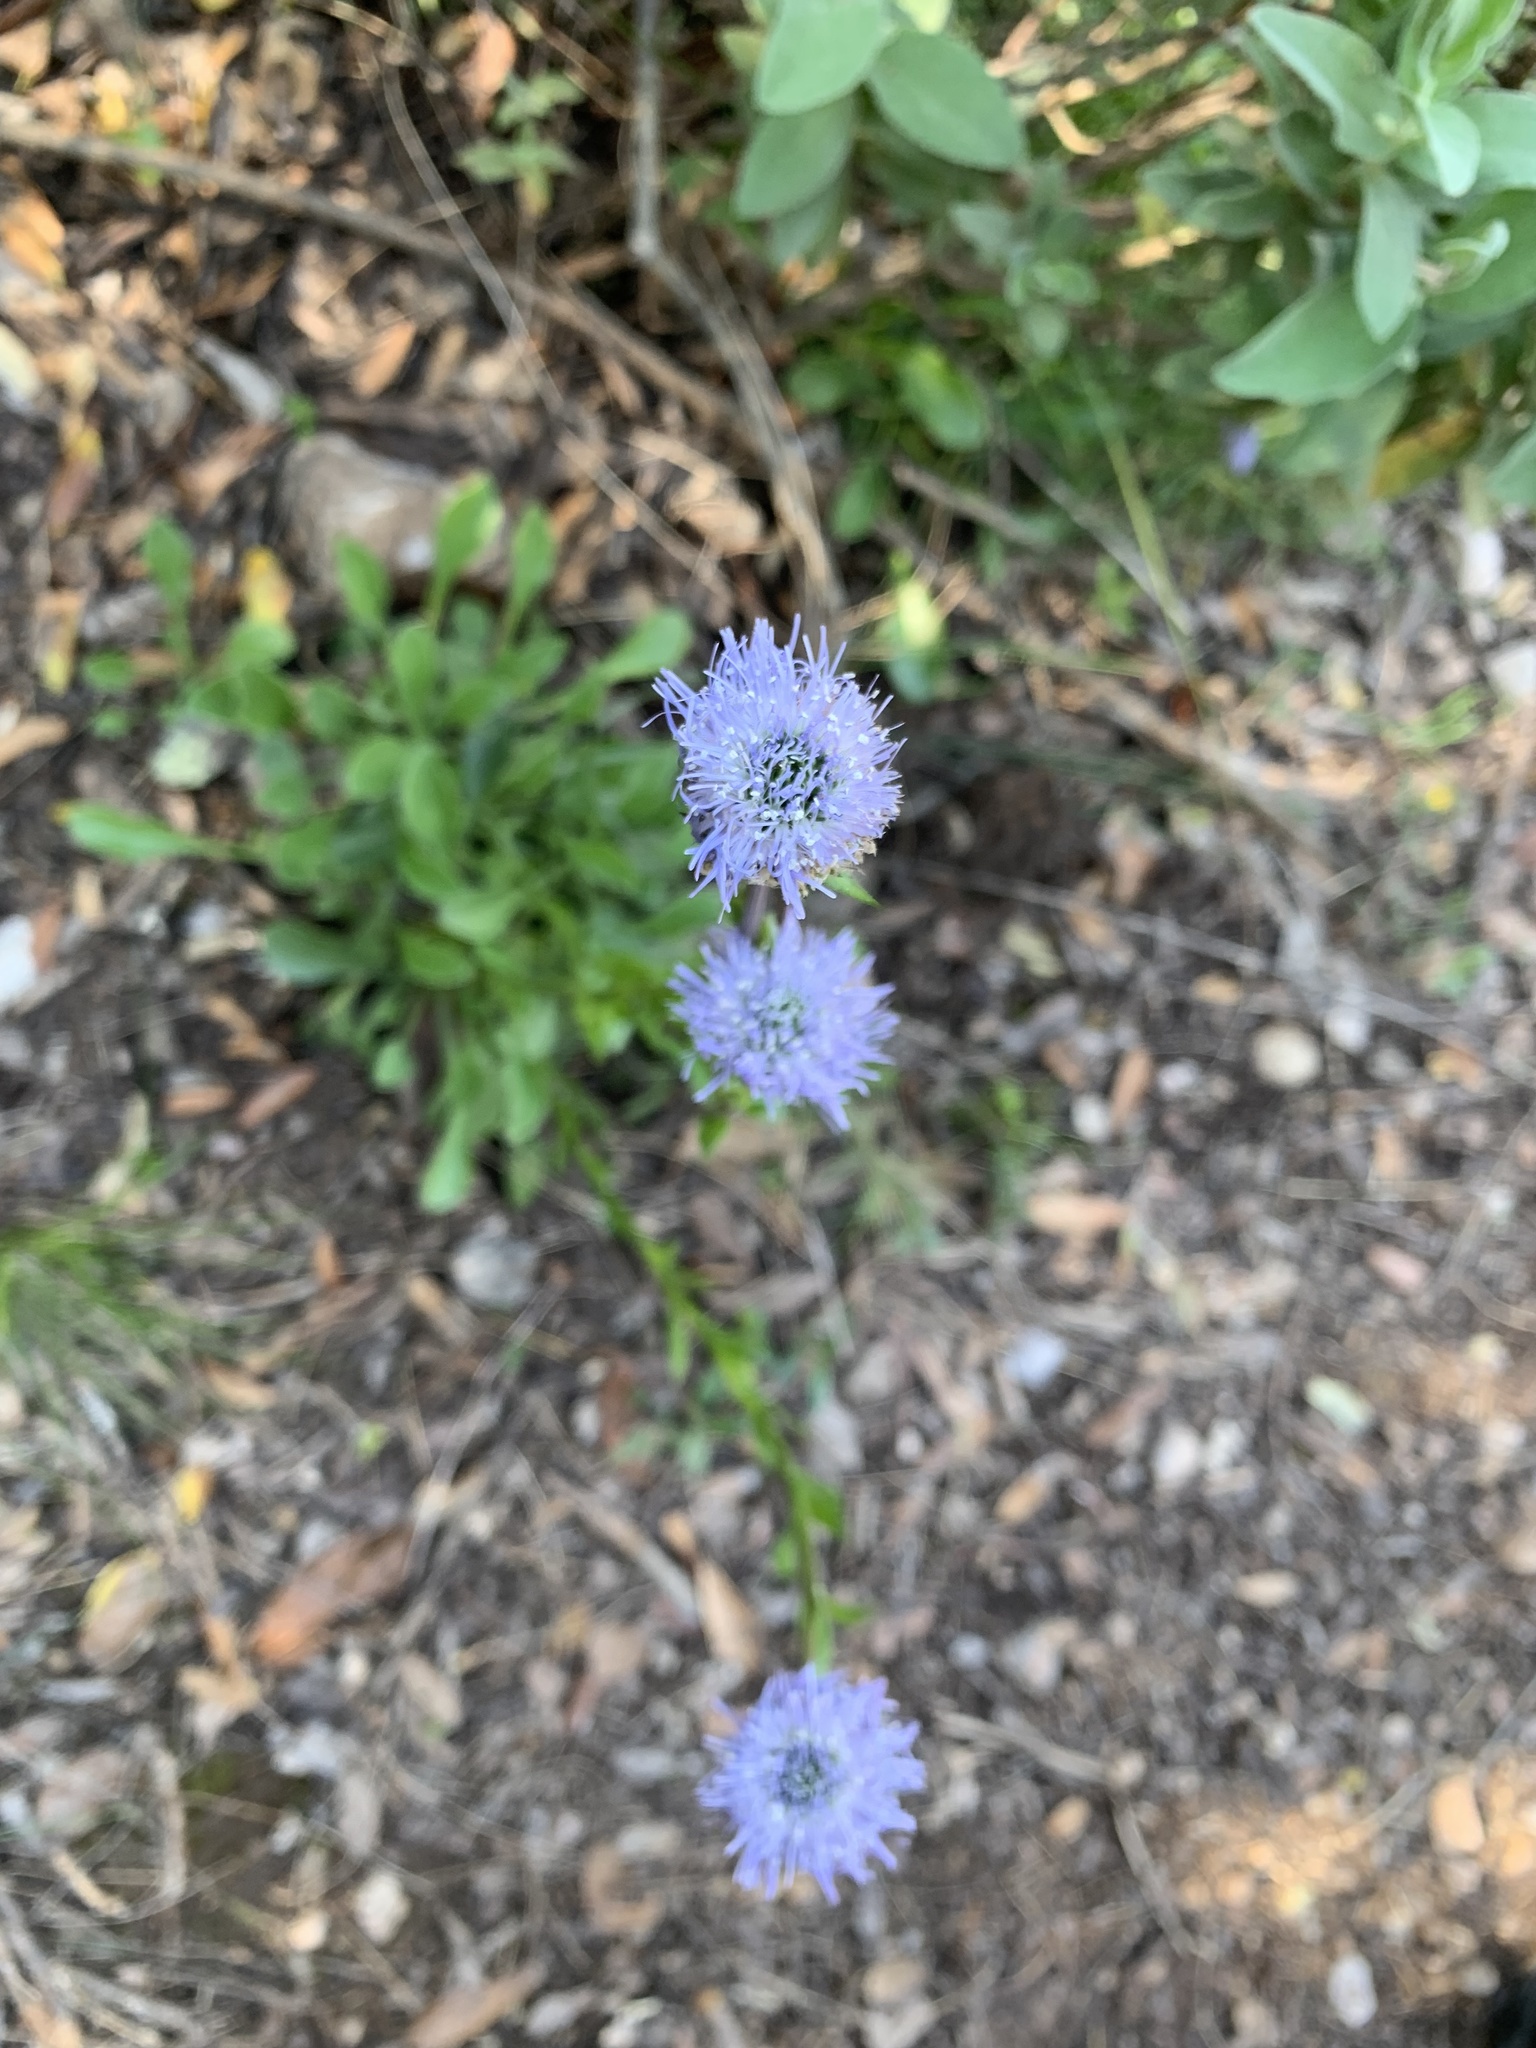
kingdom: Plantae
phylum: Tracheophyta
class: Magnoliopsida
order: Lamiales
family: Plantaginaceae
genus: Globularia
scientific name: Globularia vulgaris
